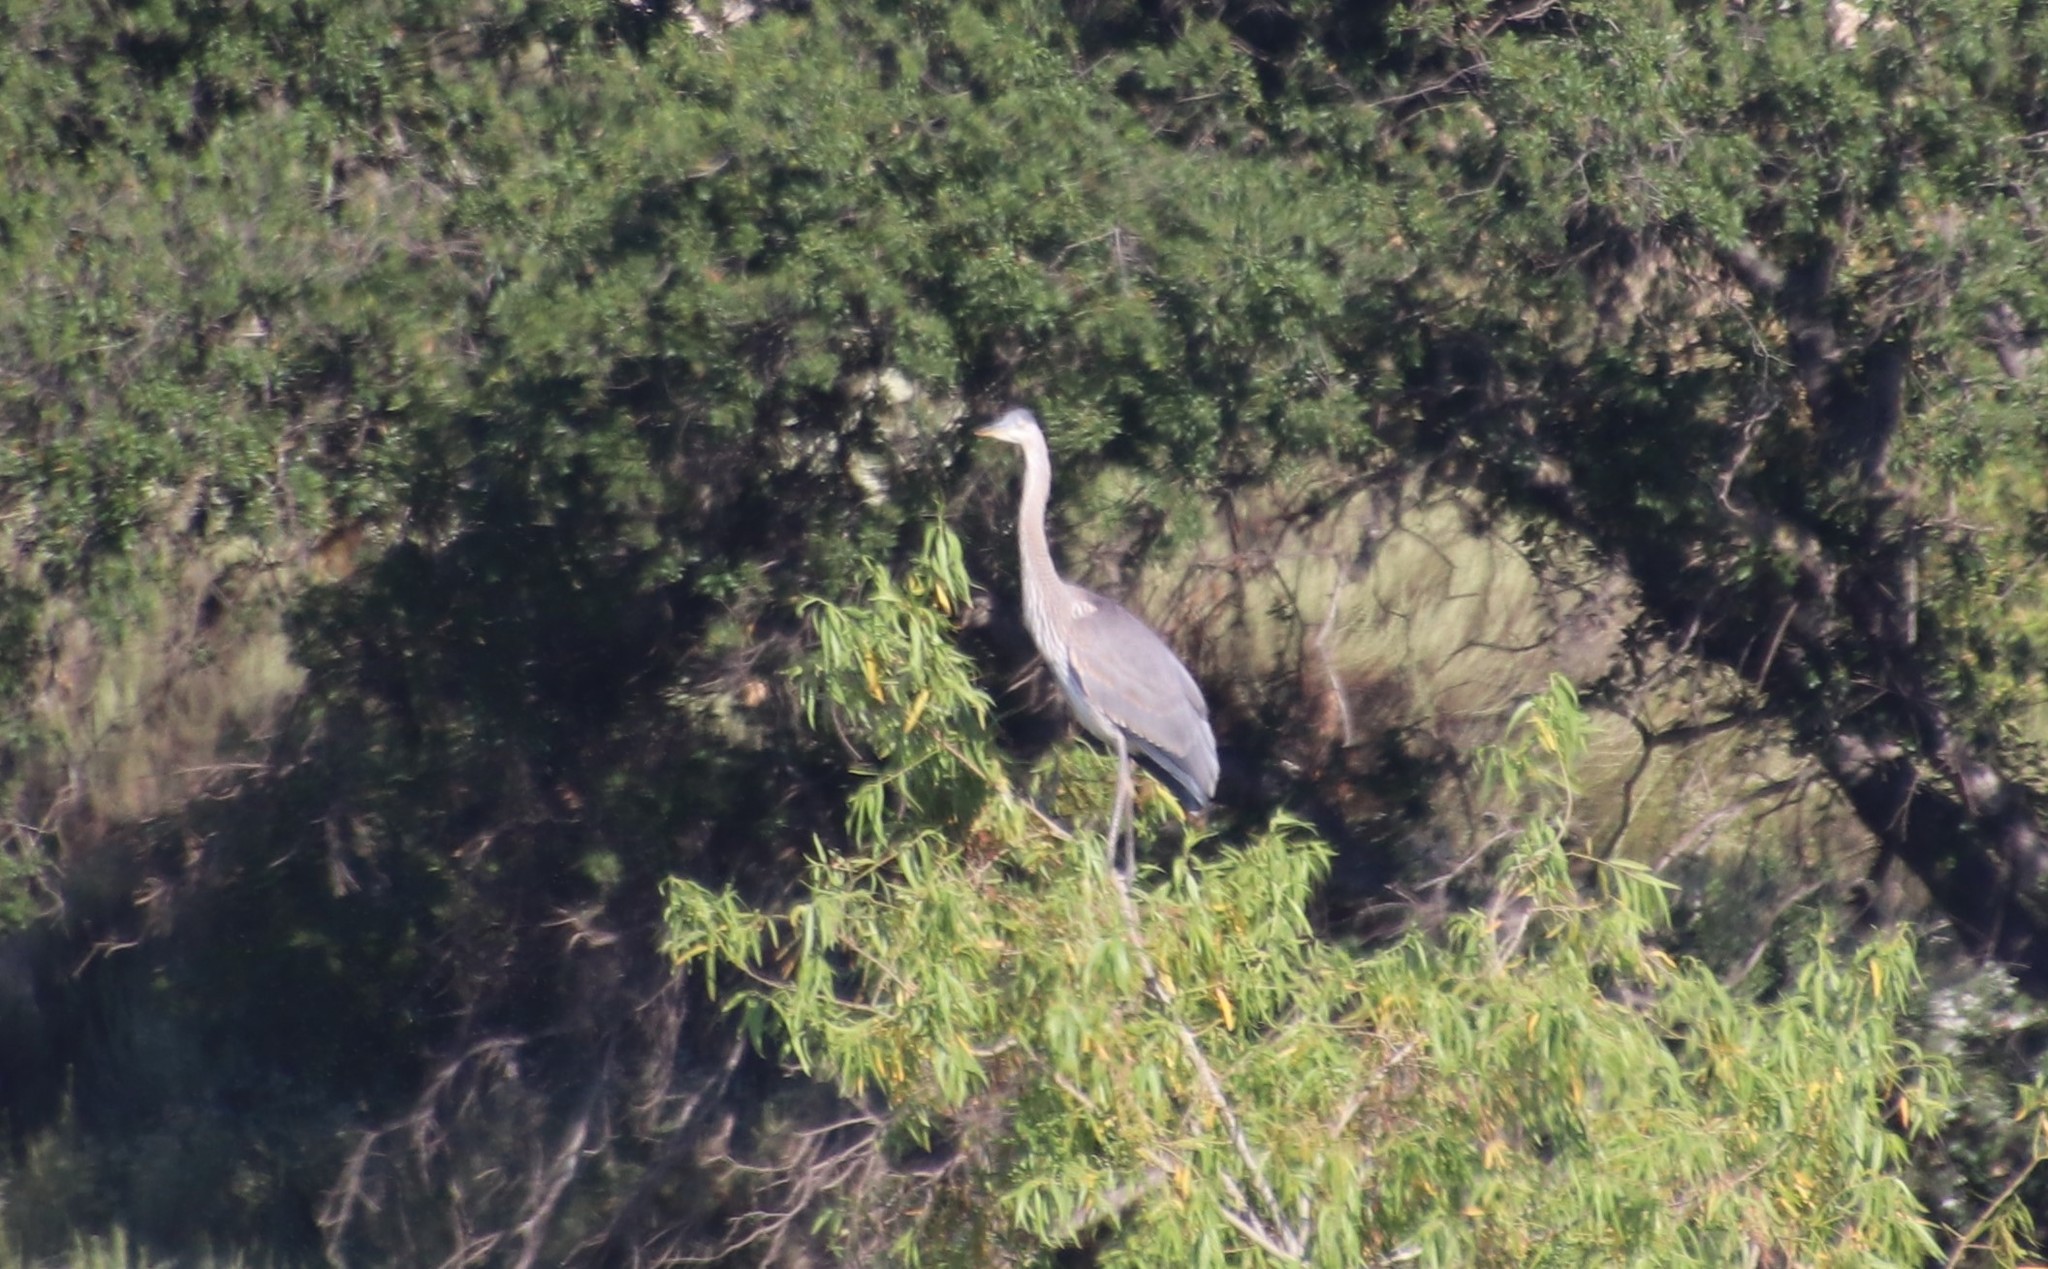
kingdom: Animalia
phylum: Chordata
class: Aves
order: Pelecaniformes
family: Ardeidae
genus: Ardea
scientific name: Ardea herodias
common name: Great blue heron
